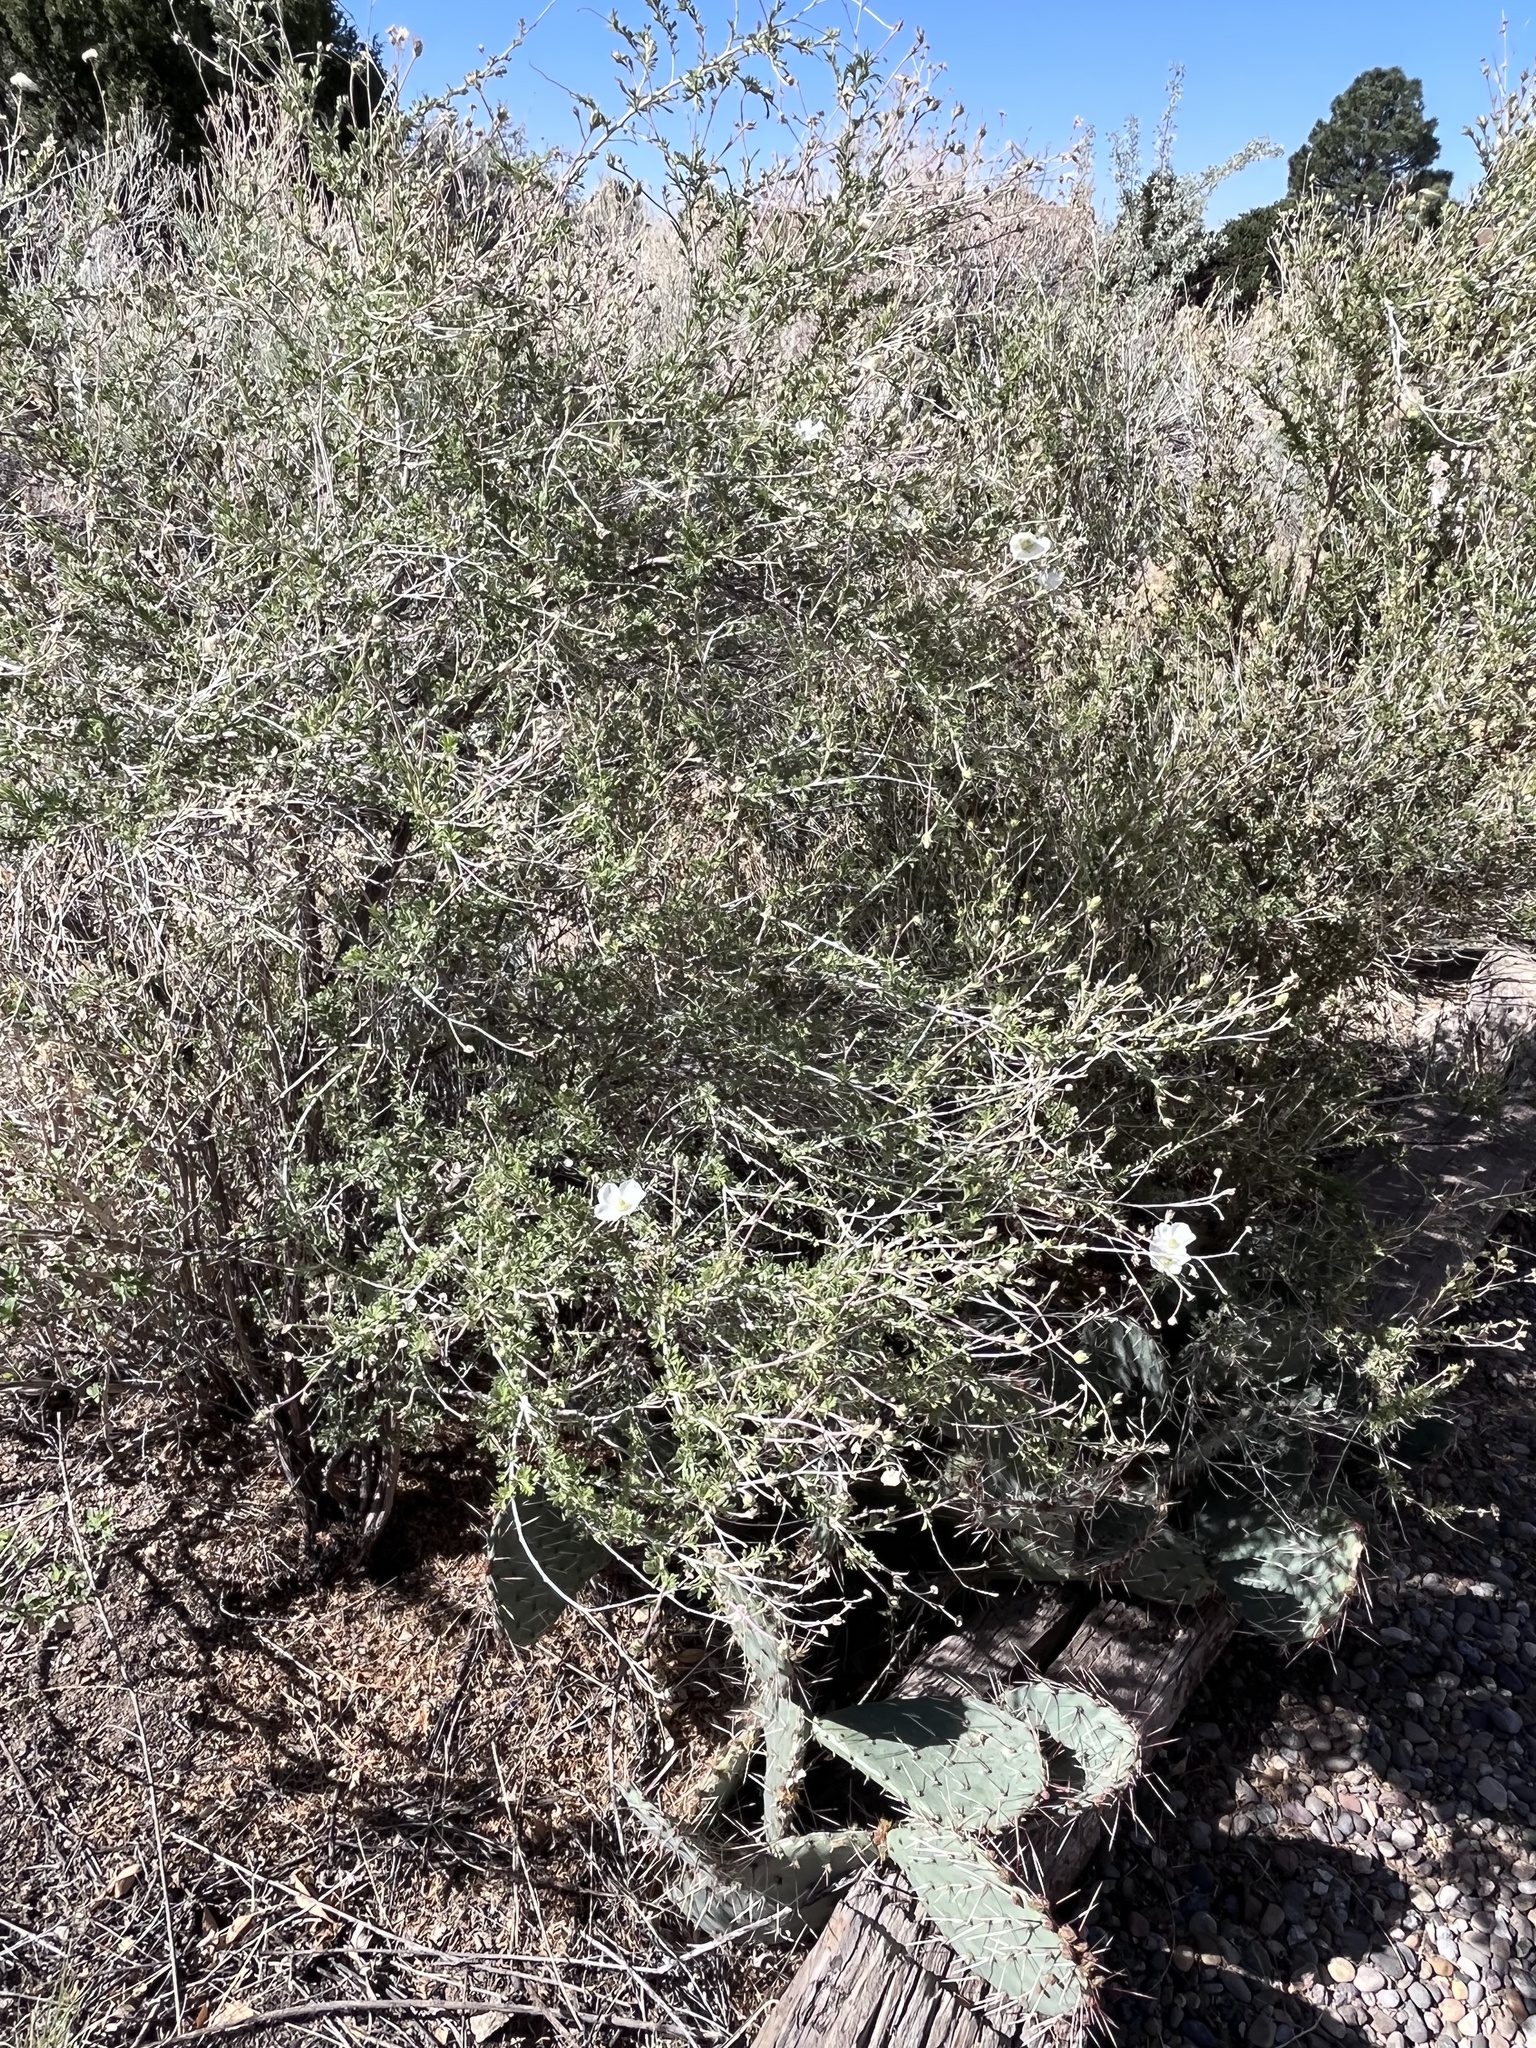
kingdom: Plantae
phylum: Tracheophyta
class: Magnoliopsida
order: Rosales
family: Rosaceae
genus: Fallugia
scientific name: Fallugia paradoxa
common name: Apache-plume
